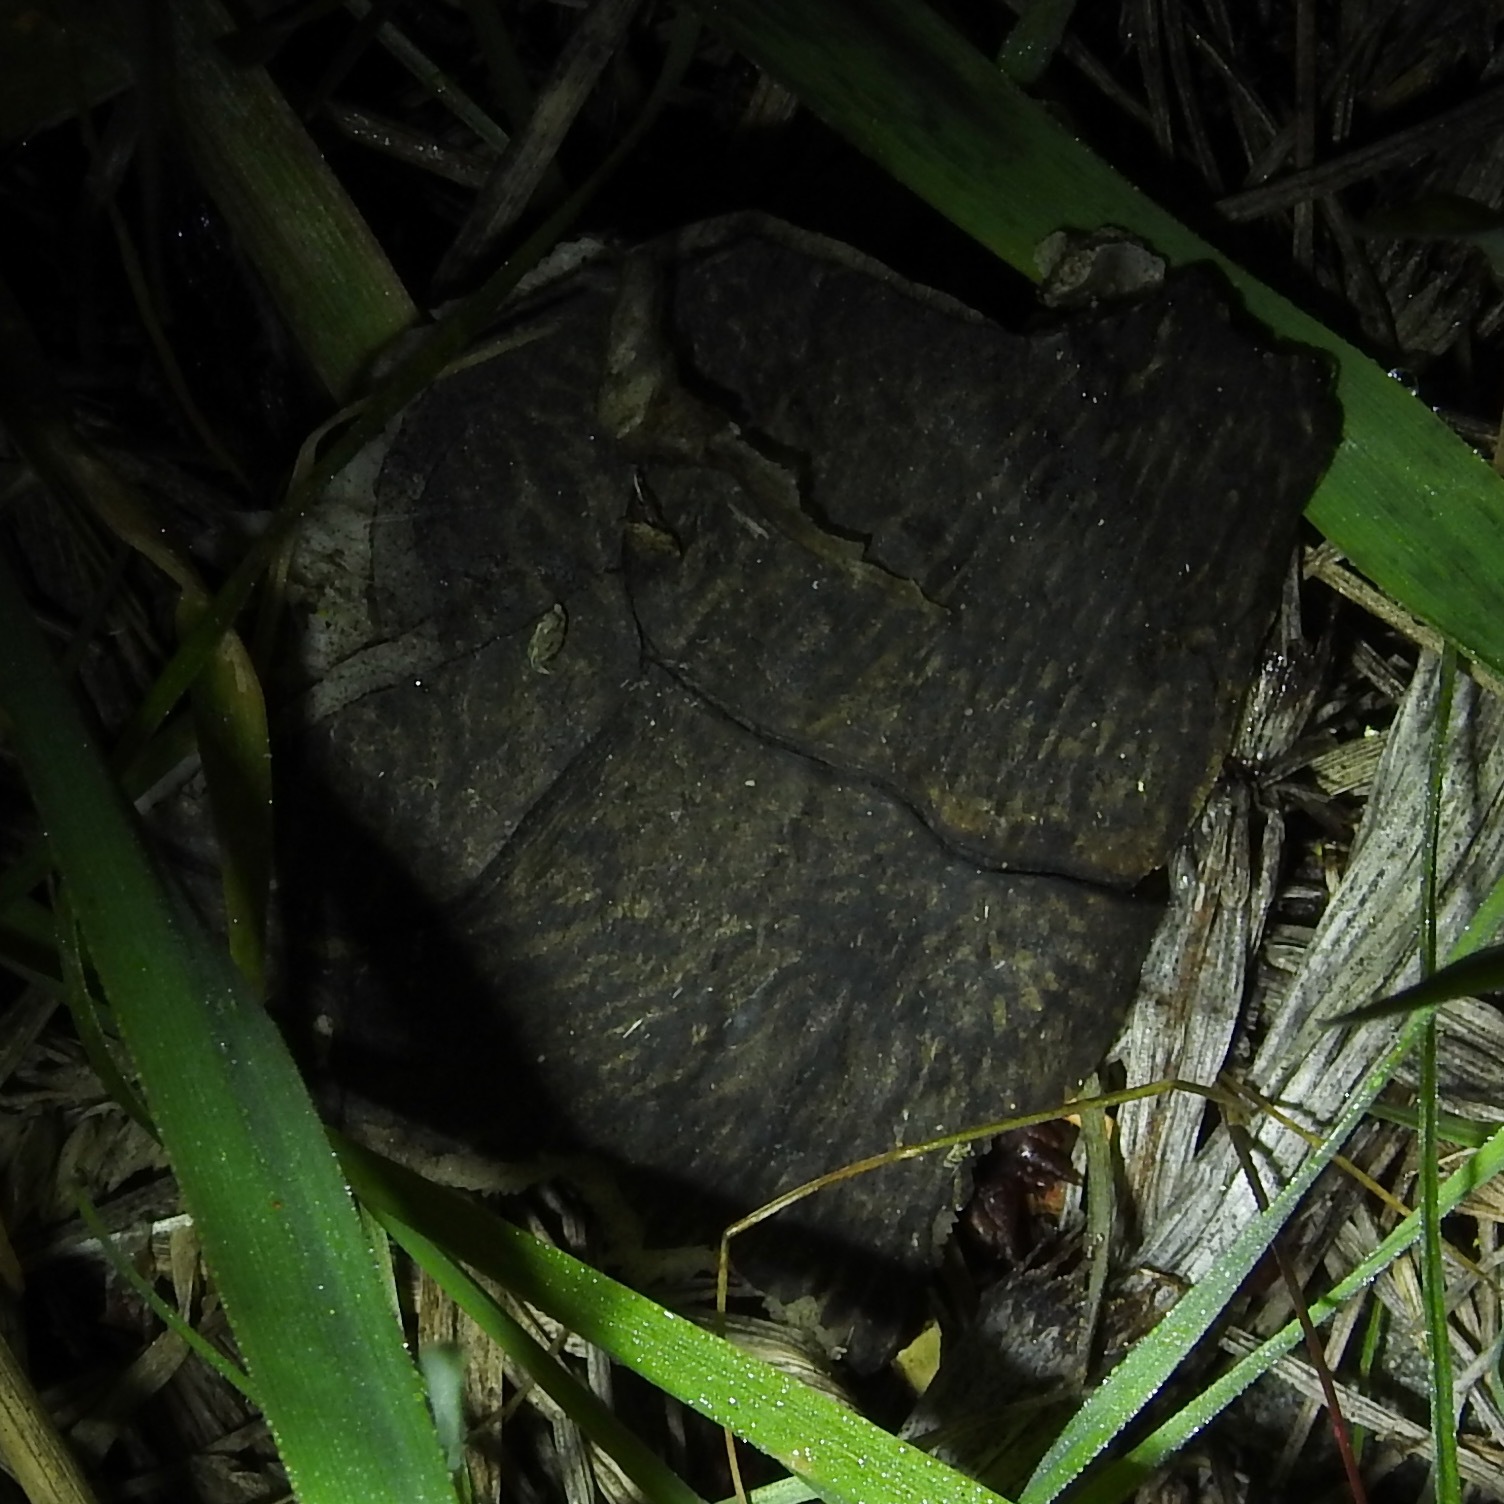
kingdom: Animalia
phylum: Chordata
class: Testudines
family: Emydidae
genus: Actinemys
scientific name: Actinemys marmorata
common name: Western pond turtle
